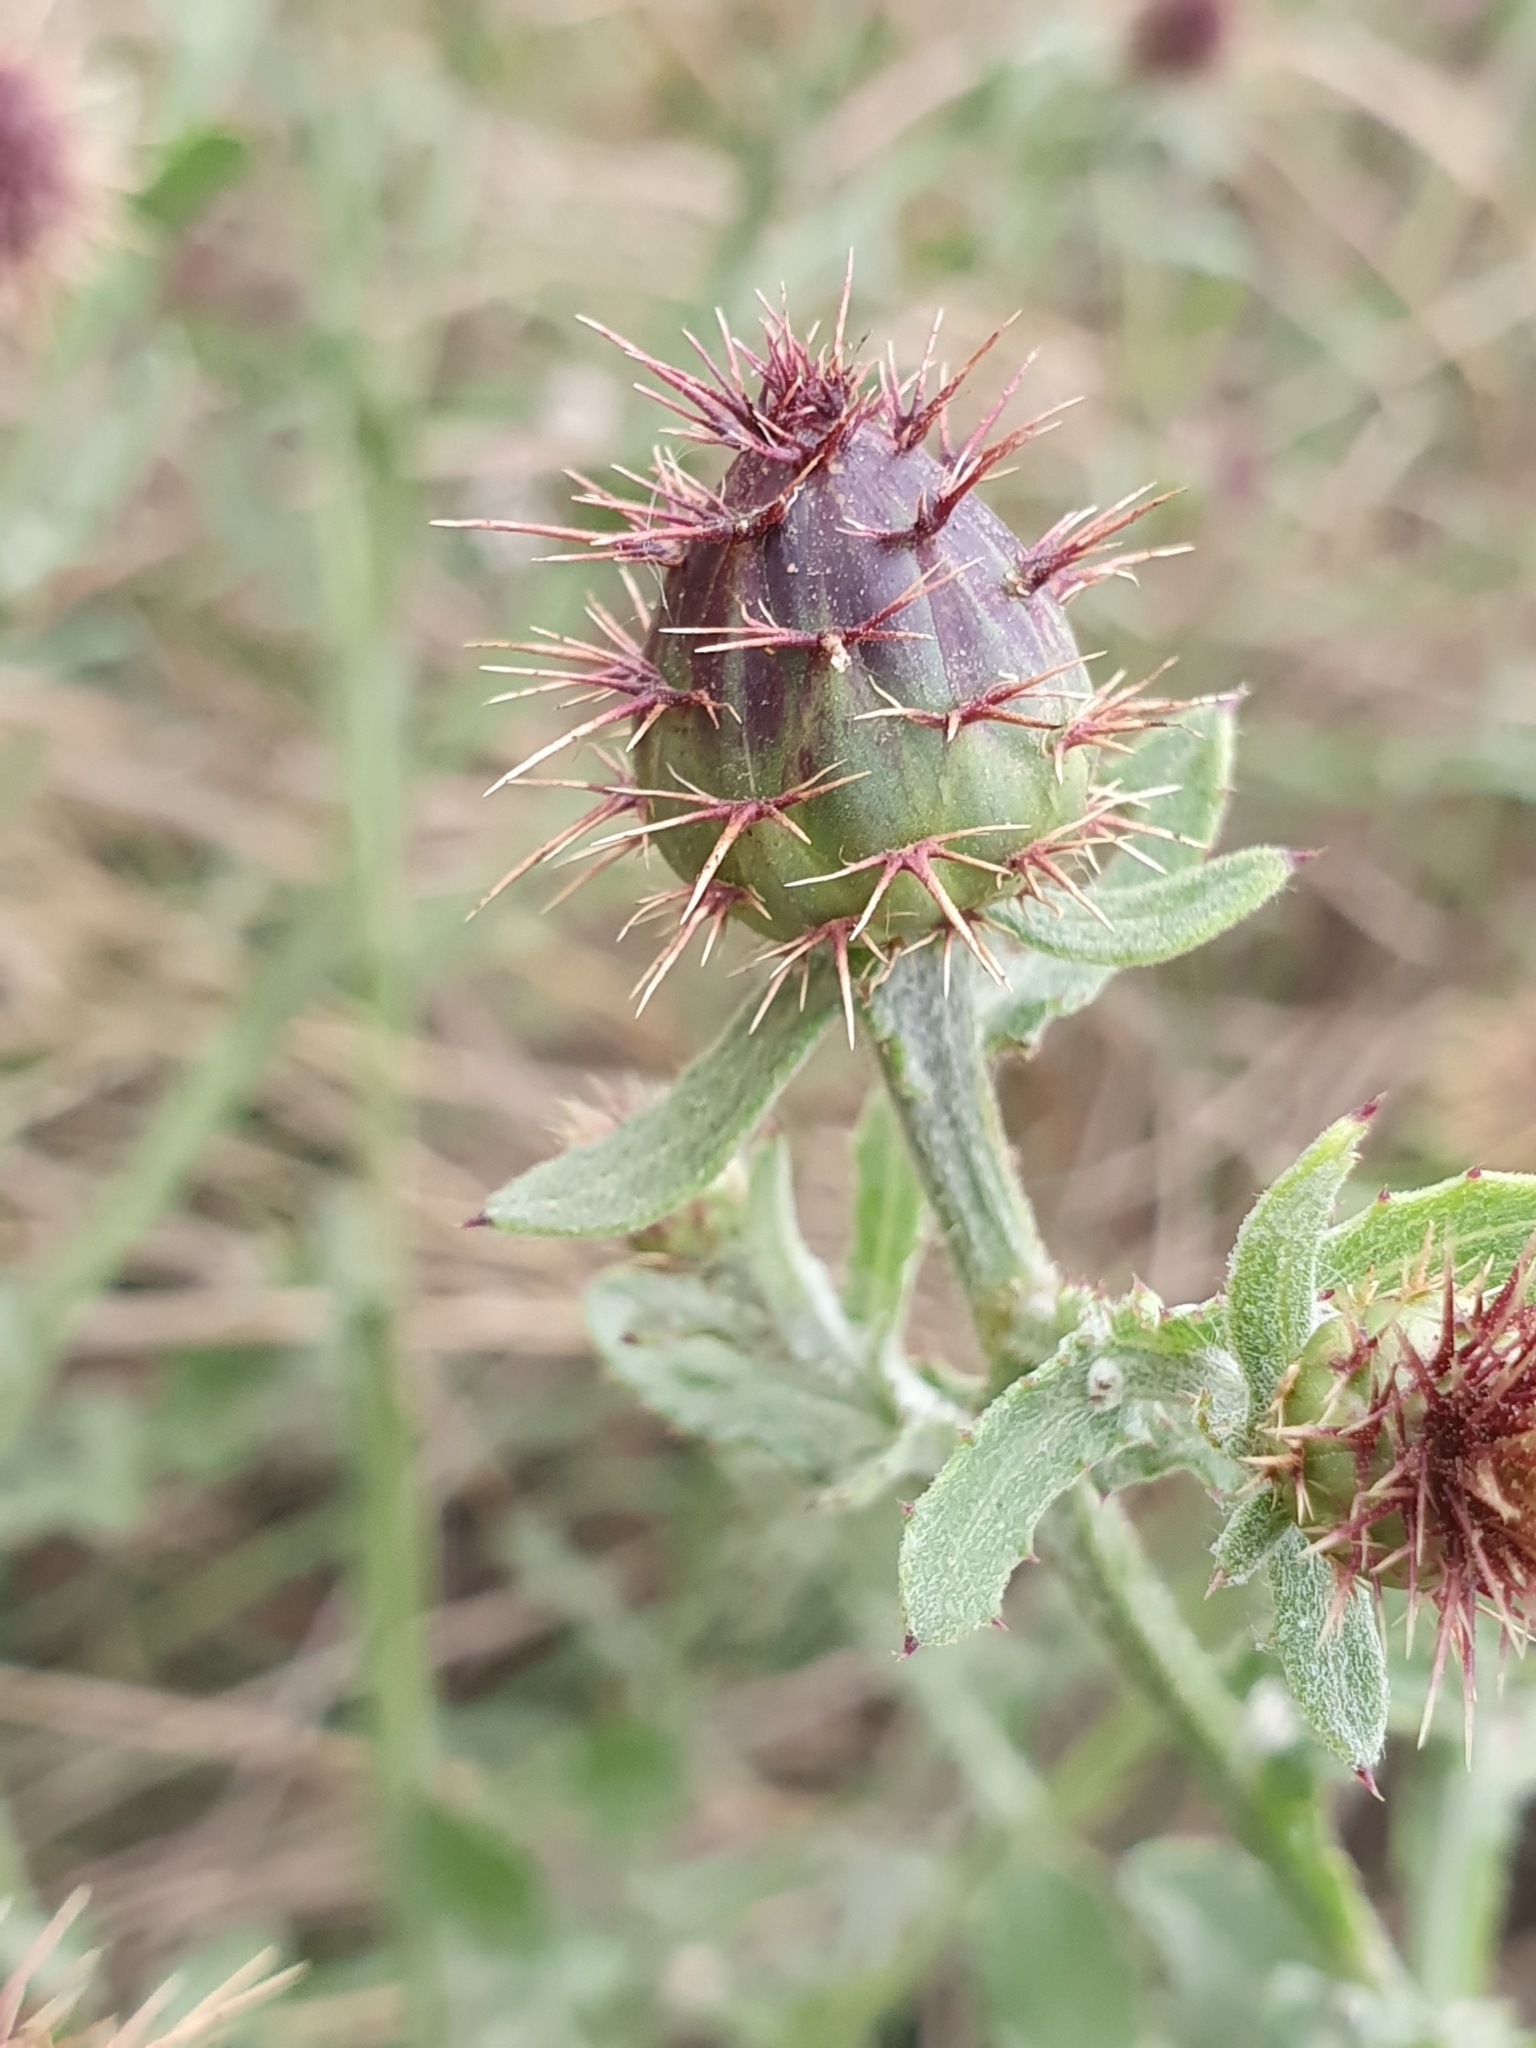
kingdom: Plantae
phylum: Tracheophyta
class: Magnoliopsida
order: Asterales
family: Asteraceae
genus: Centaurea
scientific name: Centaurea seridis
